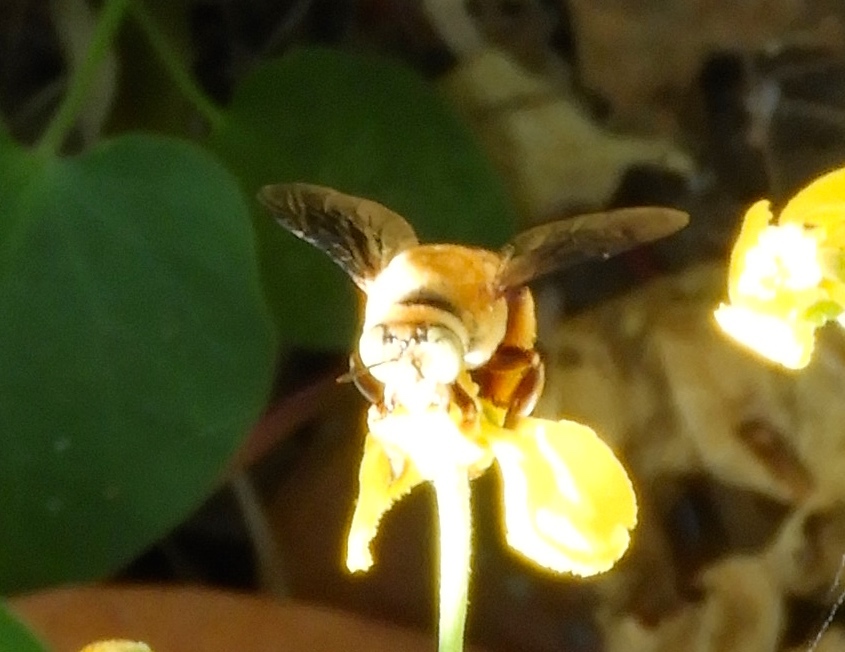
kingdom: Animalia
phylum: Arthropoda
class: Insecta
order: Hymenoptera
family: Apidae
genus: Centris
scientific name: Centris eurypatana
